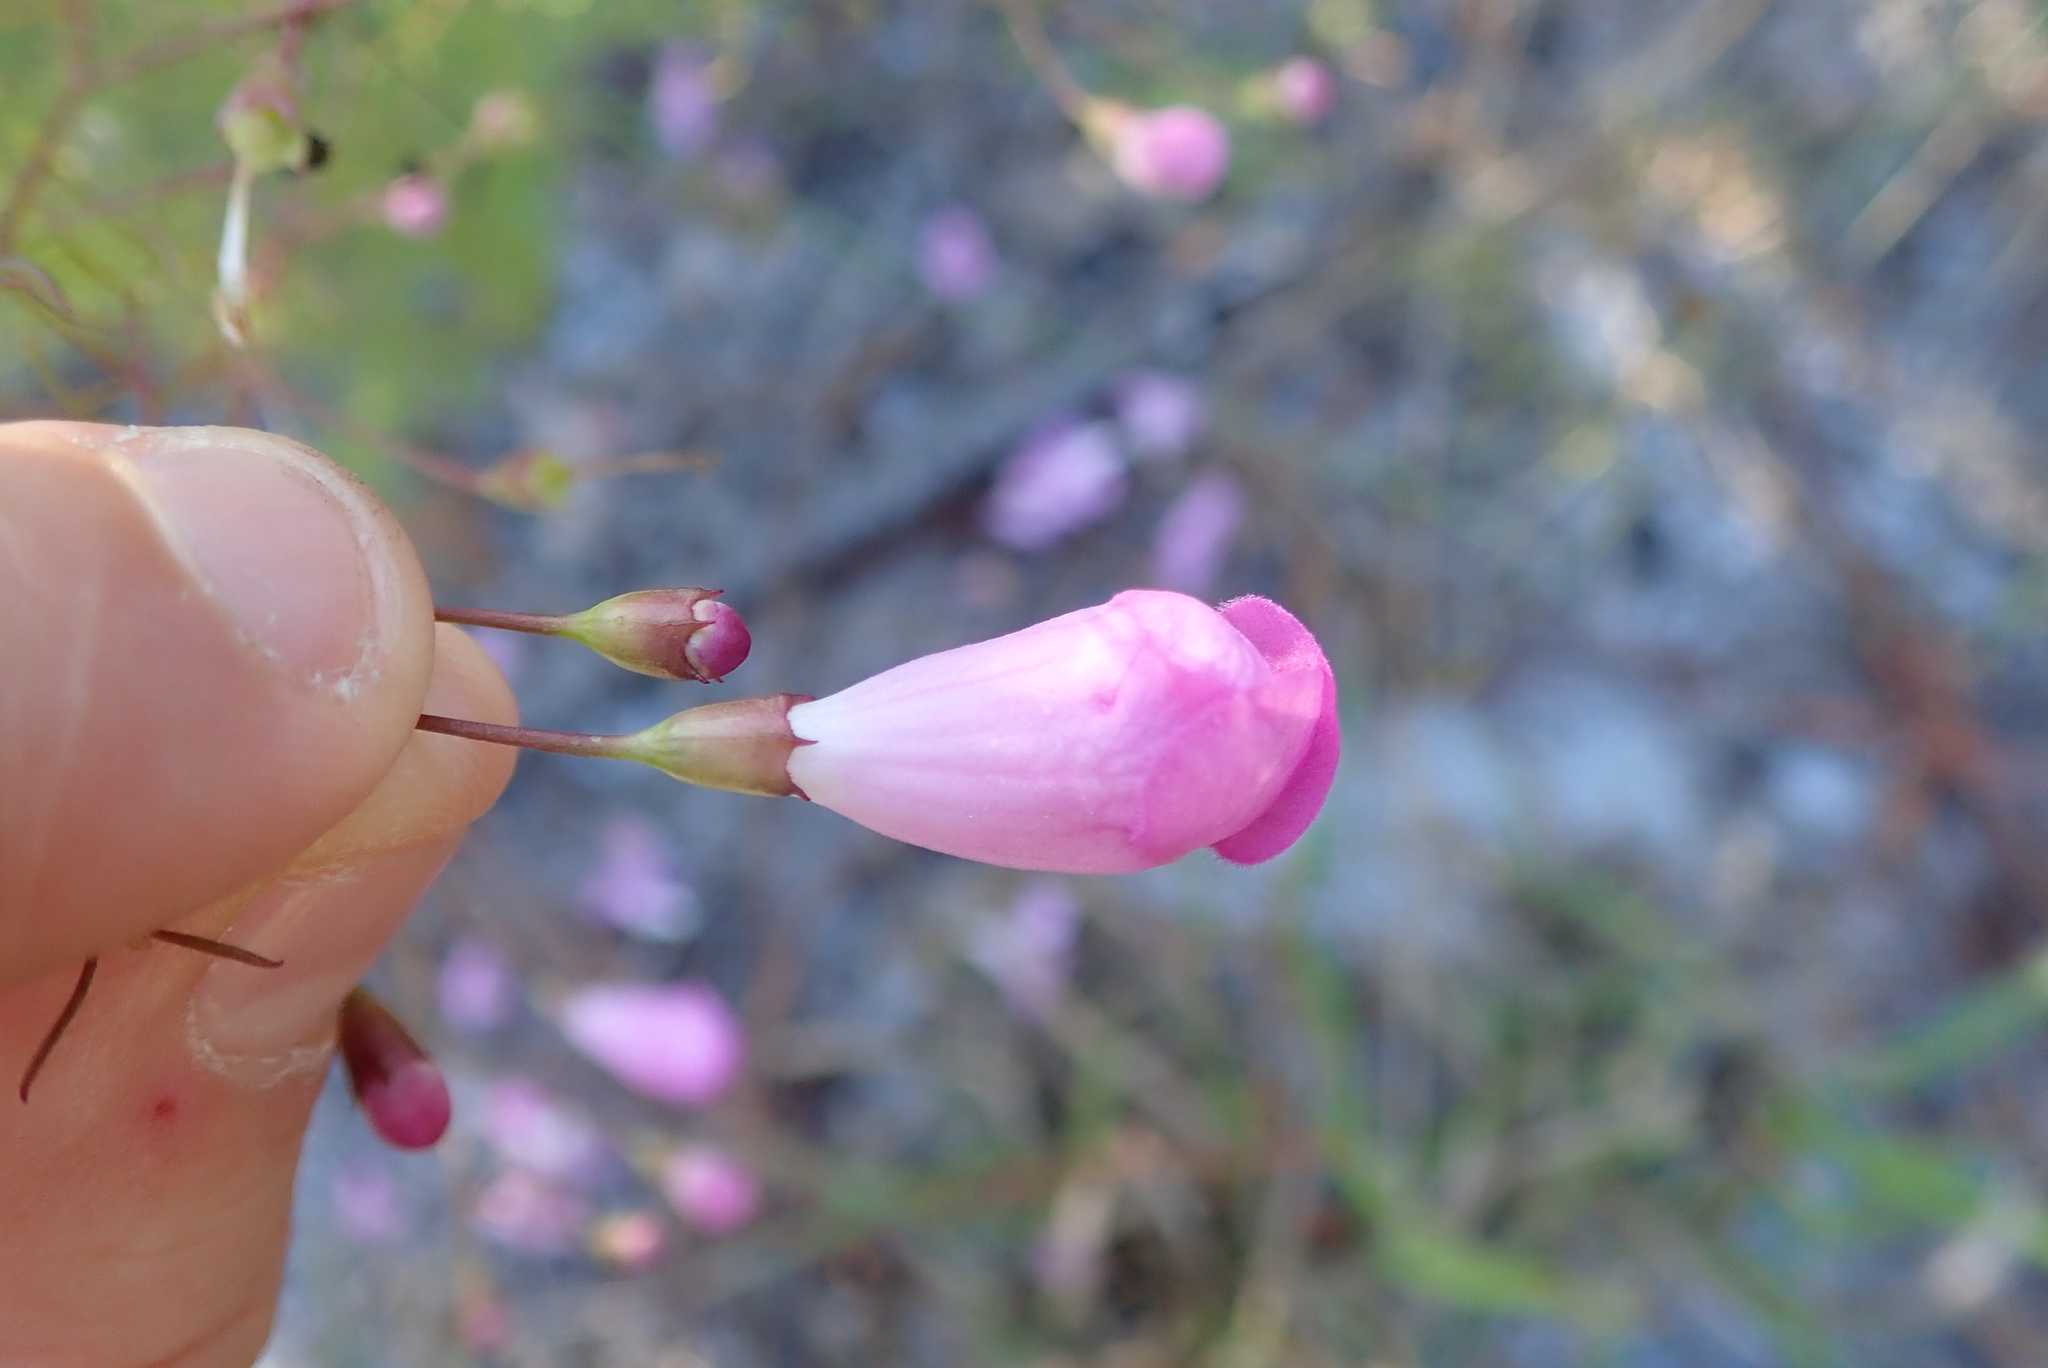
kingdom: Plantae
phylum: Tracheophyta
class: Magnoliopsida
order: Lamiales
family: Orobanchaceae
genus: Agalinis
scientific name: Agalinis filifolia
